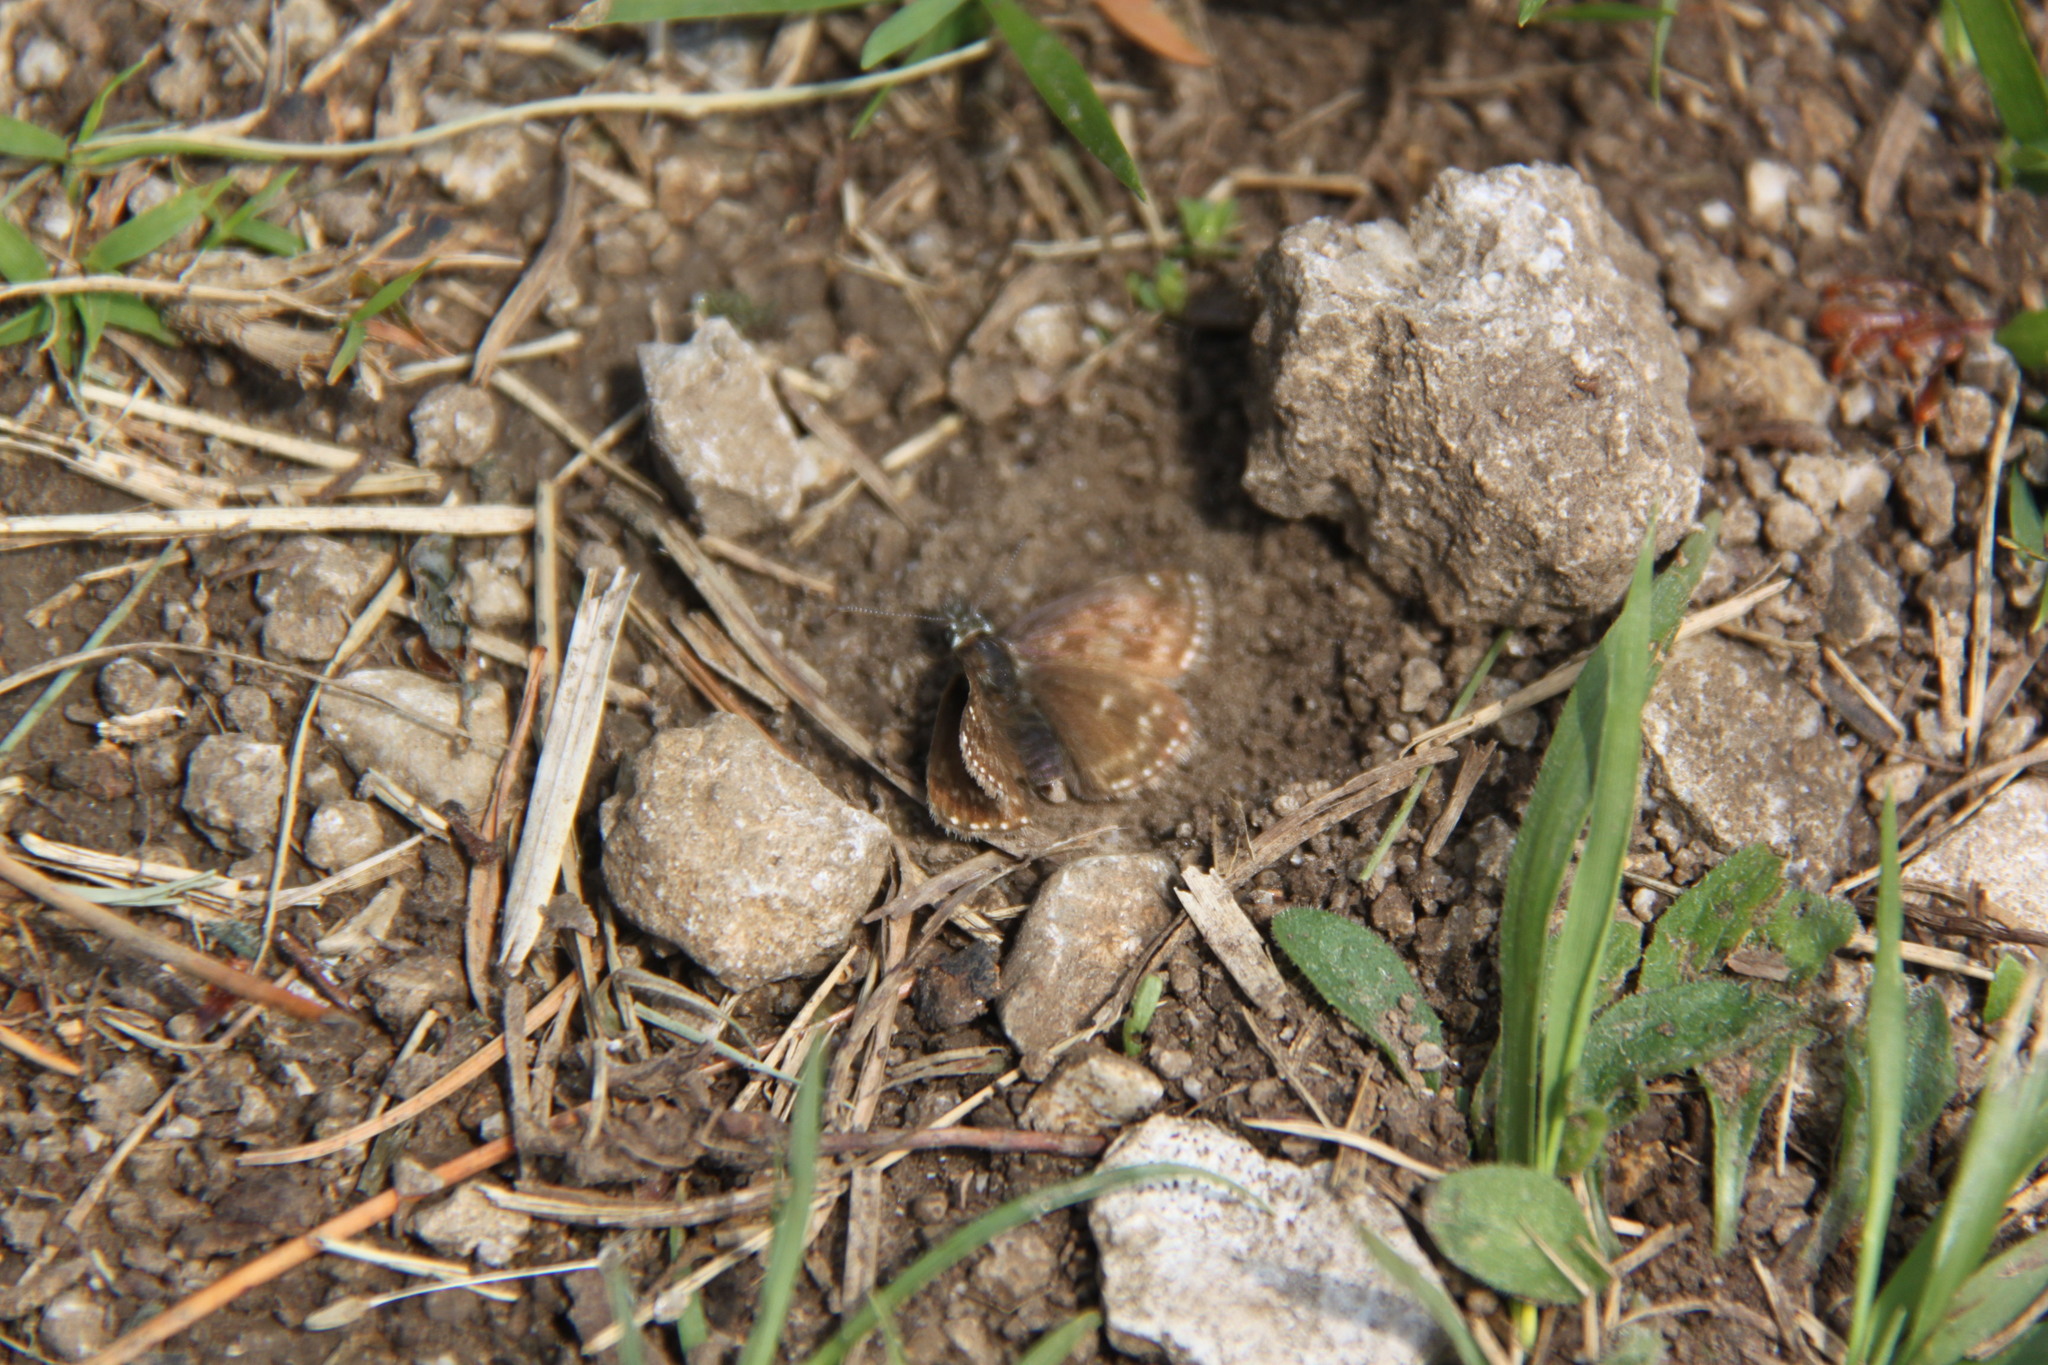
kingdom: Animalia
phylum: Arthropoda
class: Insecta
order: Lepidoptera
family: Hesperiidae
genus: Erynnis
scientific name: Erynnis tages
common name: Dingy skipper
